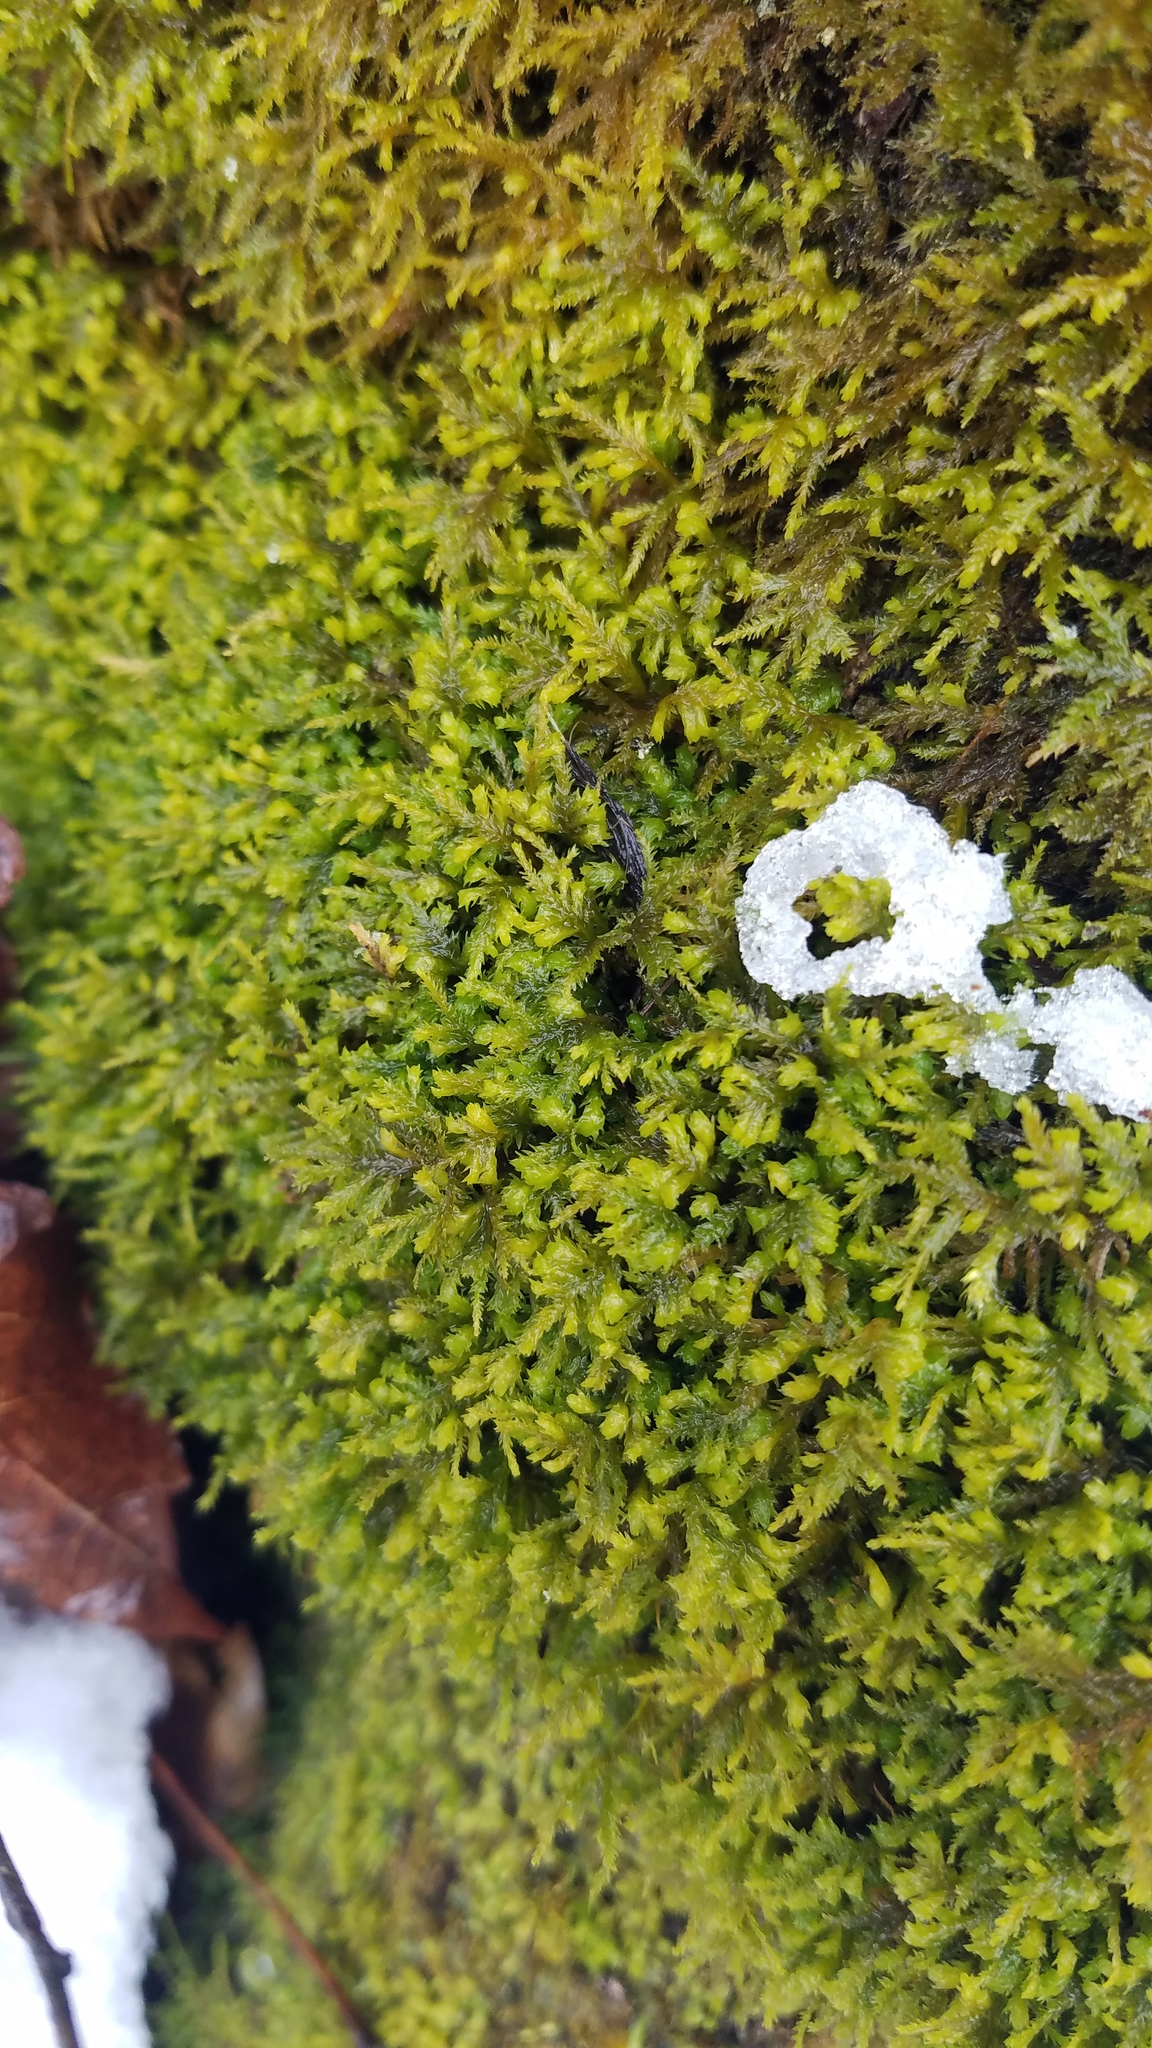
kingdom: Plantae
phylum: Bryophyta
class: Bryopsida
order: Hypnales
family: Neckeraceae
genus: Pseudanomodon
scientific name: Pseudanomodon attenuatus
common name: Tree-skirt moss
